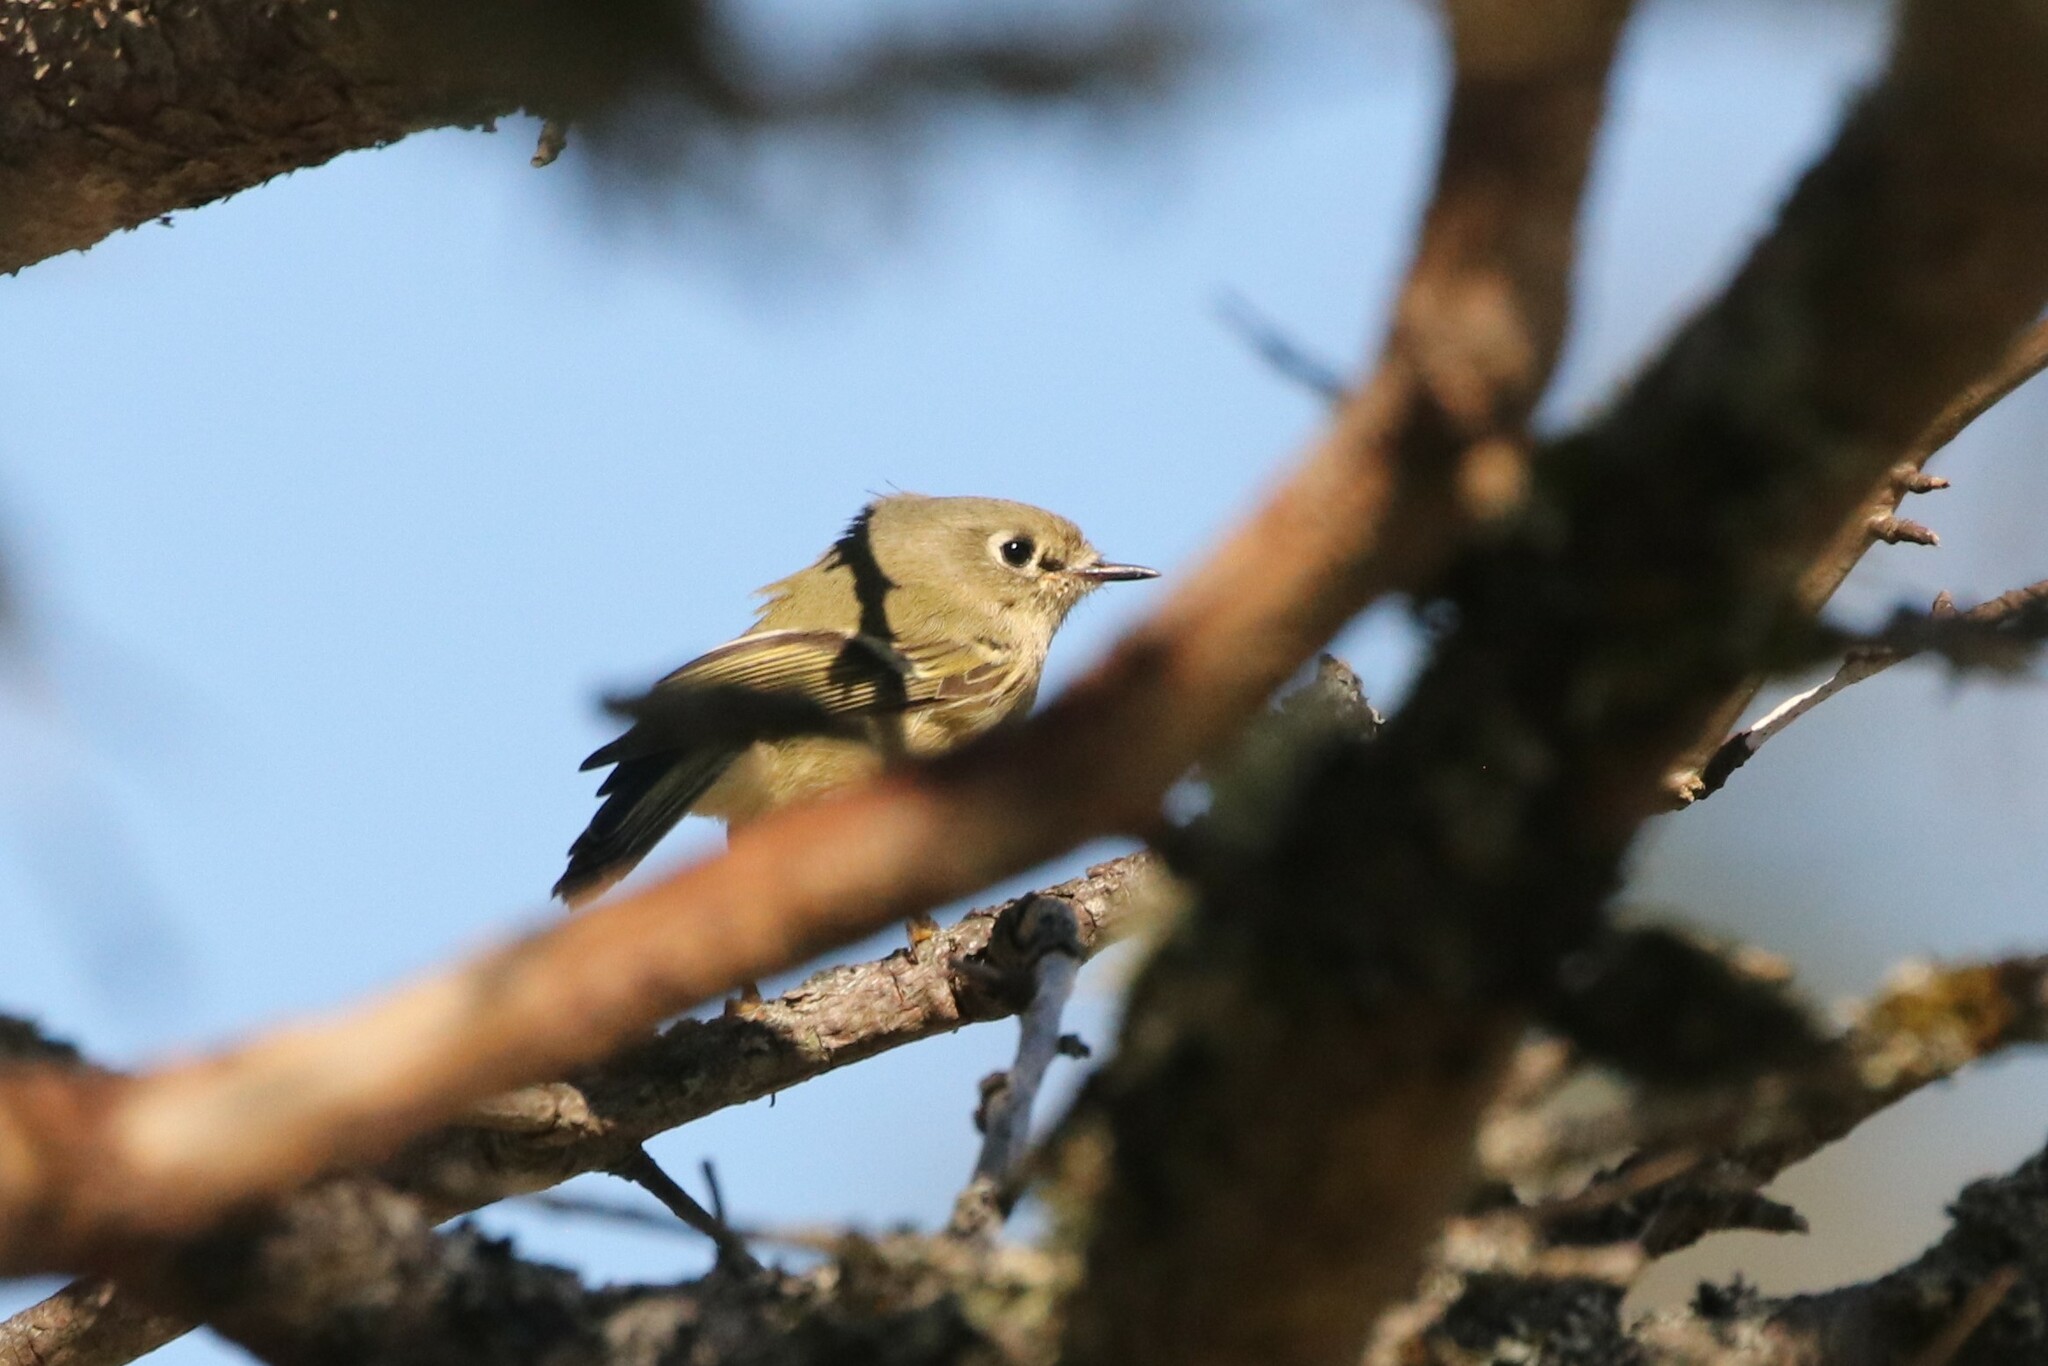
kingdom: Animalia
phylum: Chordata
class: Aves
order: Passeriformes
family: Regulidae
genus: Regulus
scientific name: Regulus calendula
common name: Ruby-crowned kinglet
